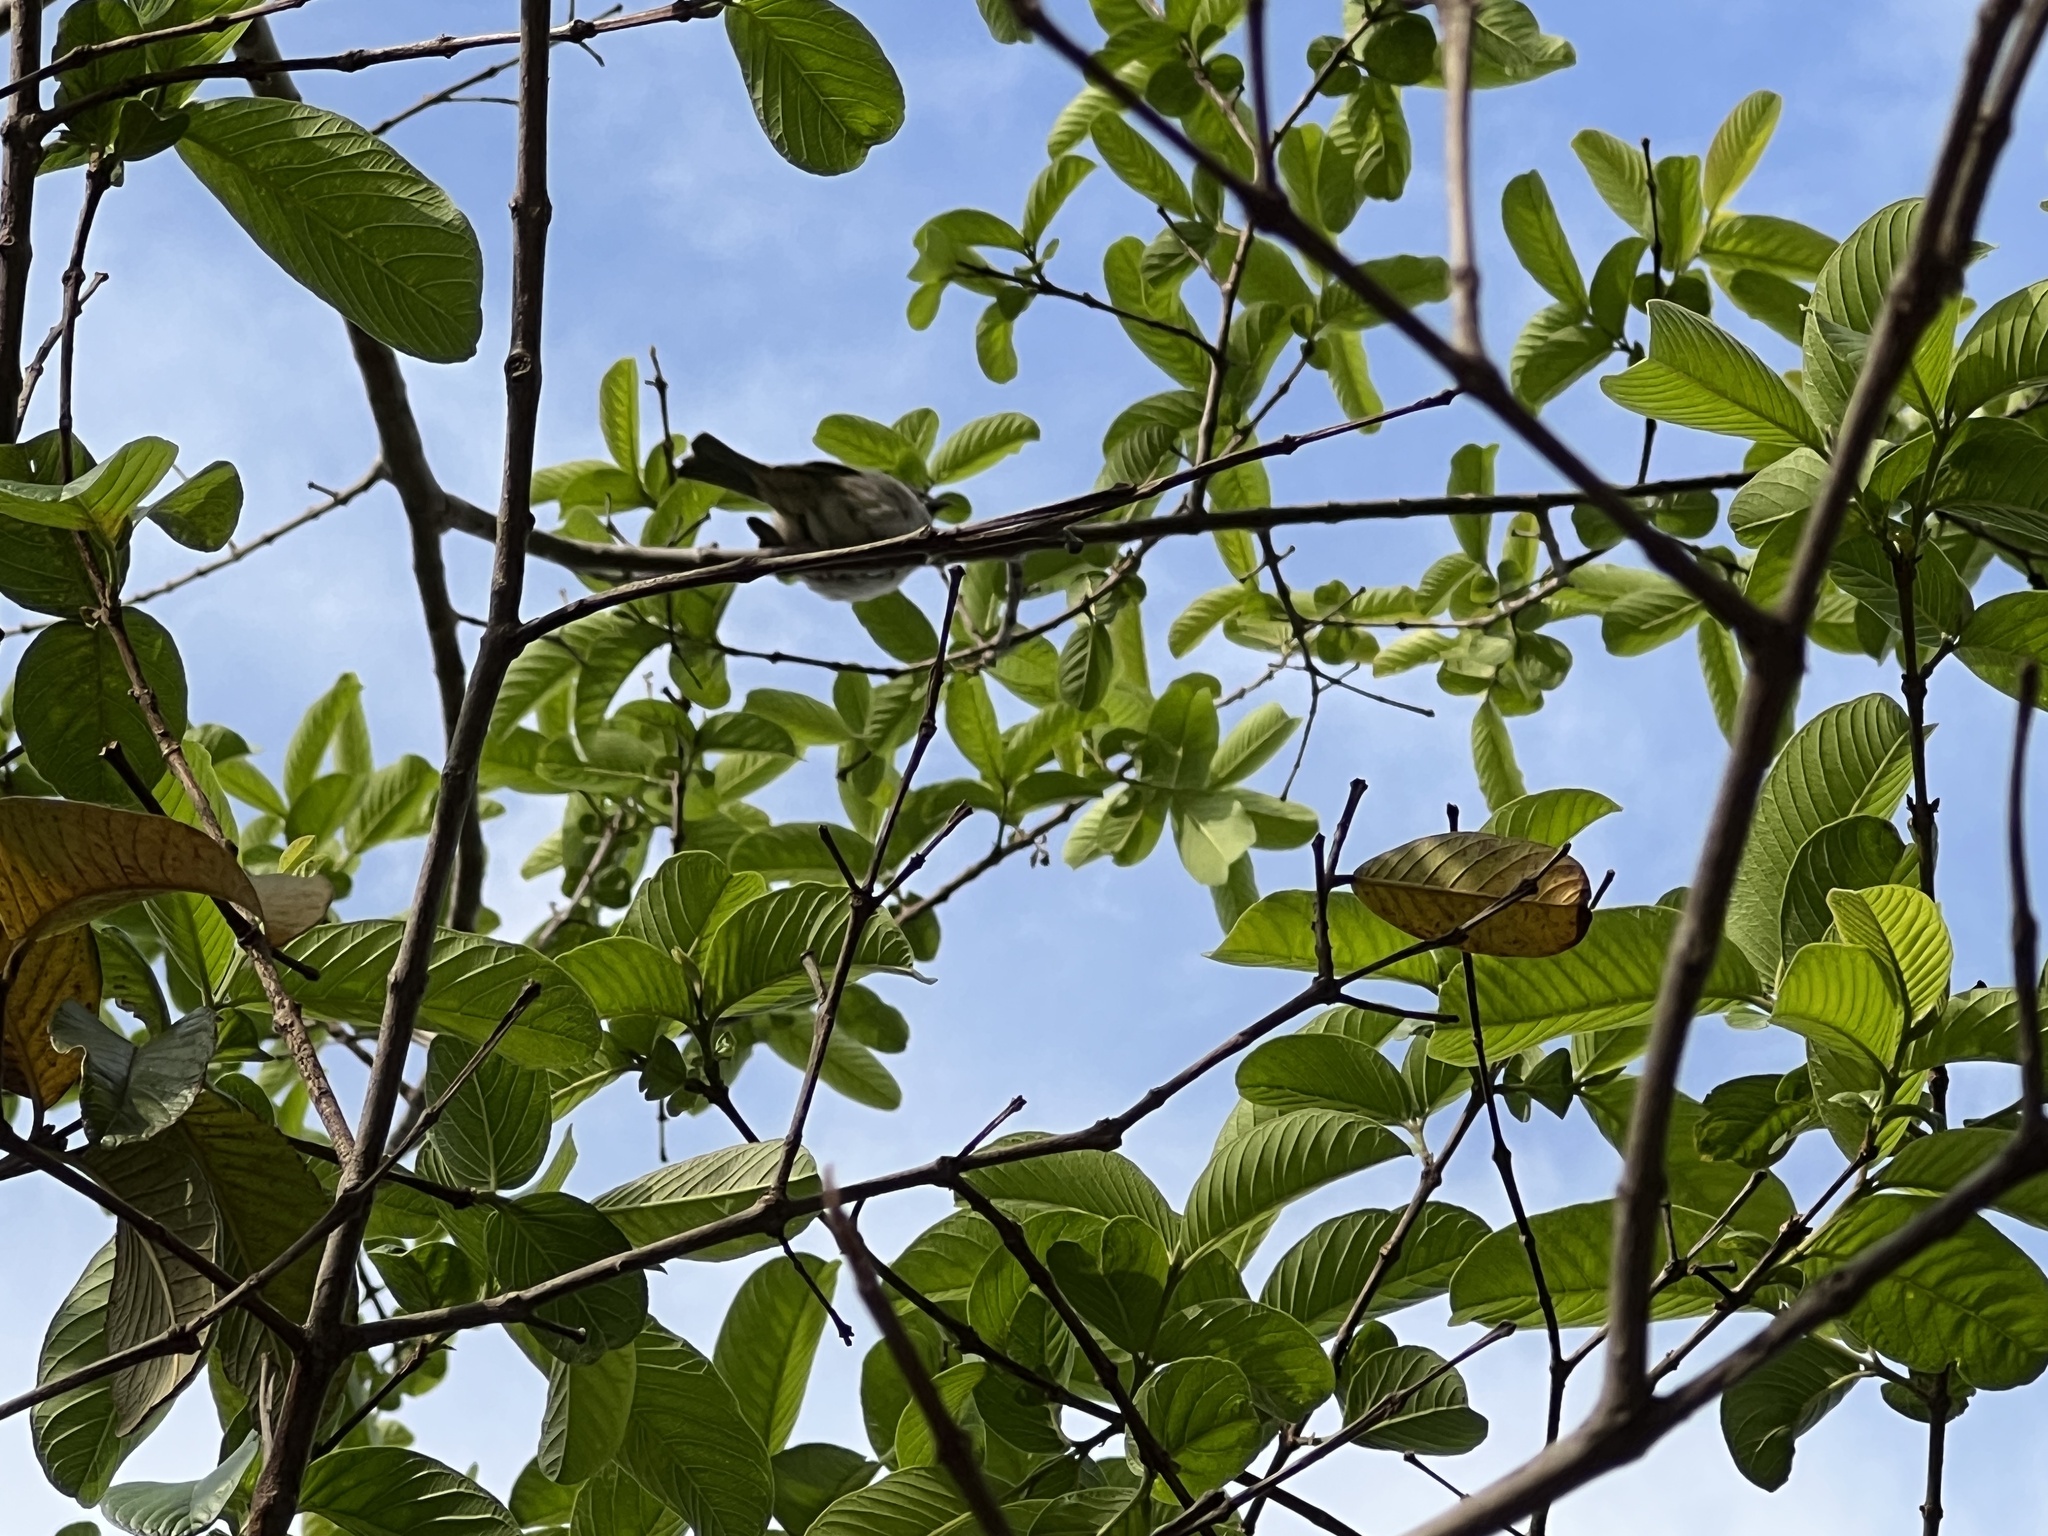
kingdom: Animalia
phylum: Chordata
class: Aves
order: Passeriformes
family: Passeridae
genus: Passer
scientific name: Passer domesticus
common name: House sparrow
